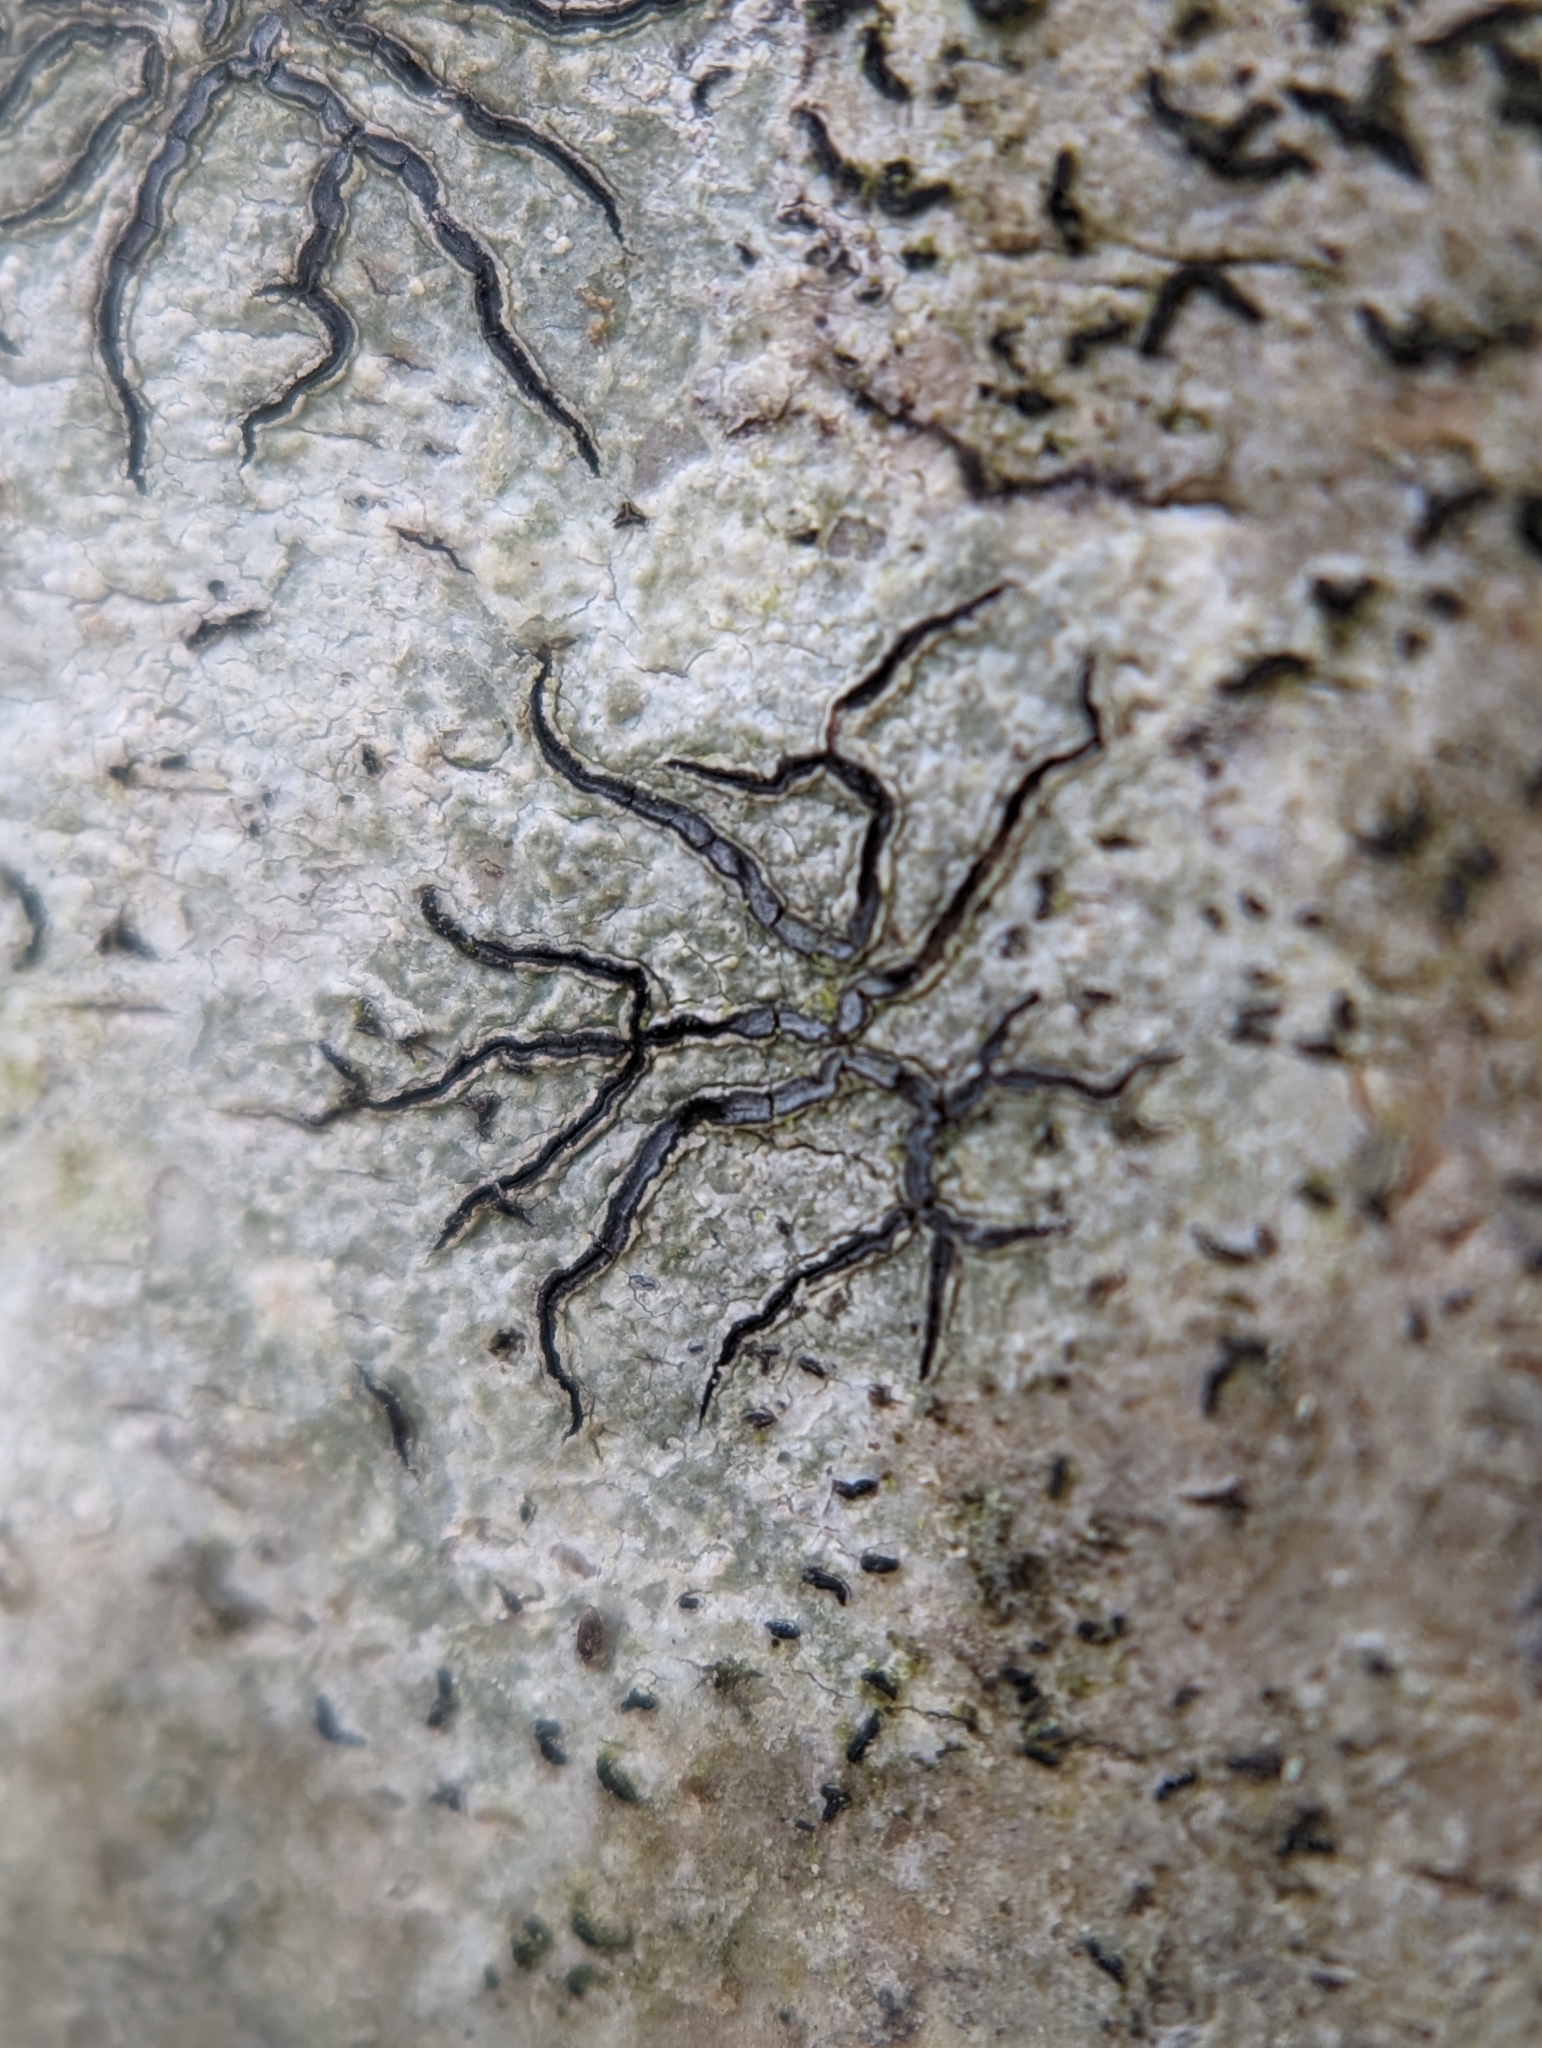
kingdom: Fungi
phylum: Ascomycota
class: Lecanoromycetes
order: Ostropales
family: Graphidaceae
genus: Graphis
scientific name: Graphis scripta
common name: Script lichen
